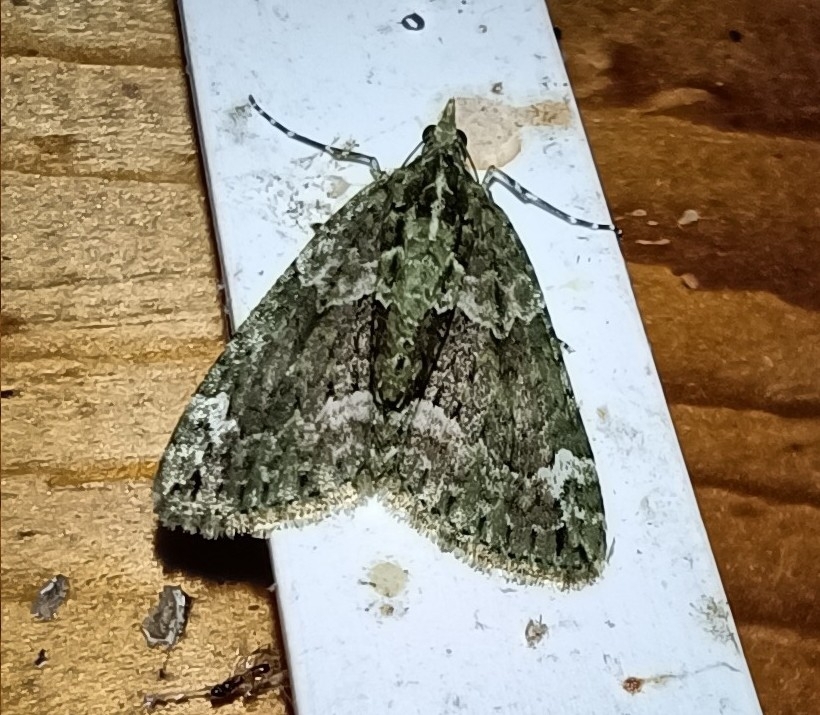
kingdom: Animalia
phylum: Arthropoda
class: Insecta
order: Lepidoptera
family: Geometridae
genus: Chloroclysta
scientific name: Chloroclysta siterata
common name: Red-green carpet
